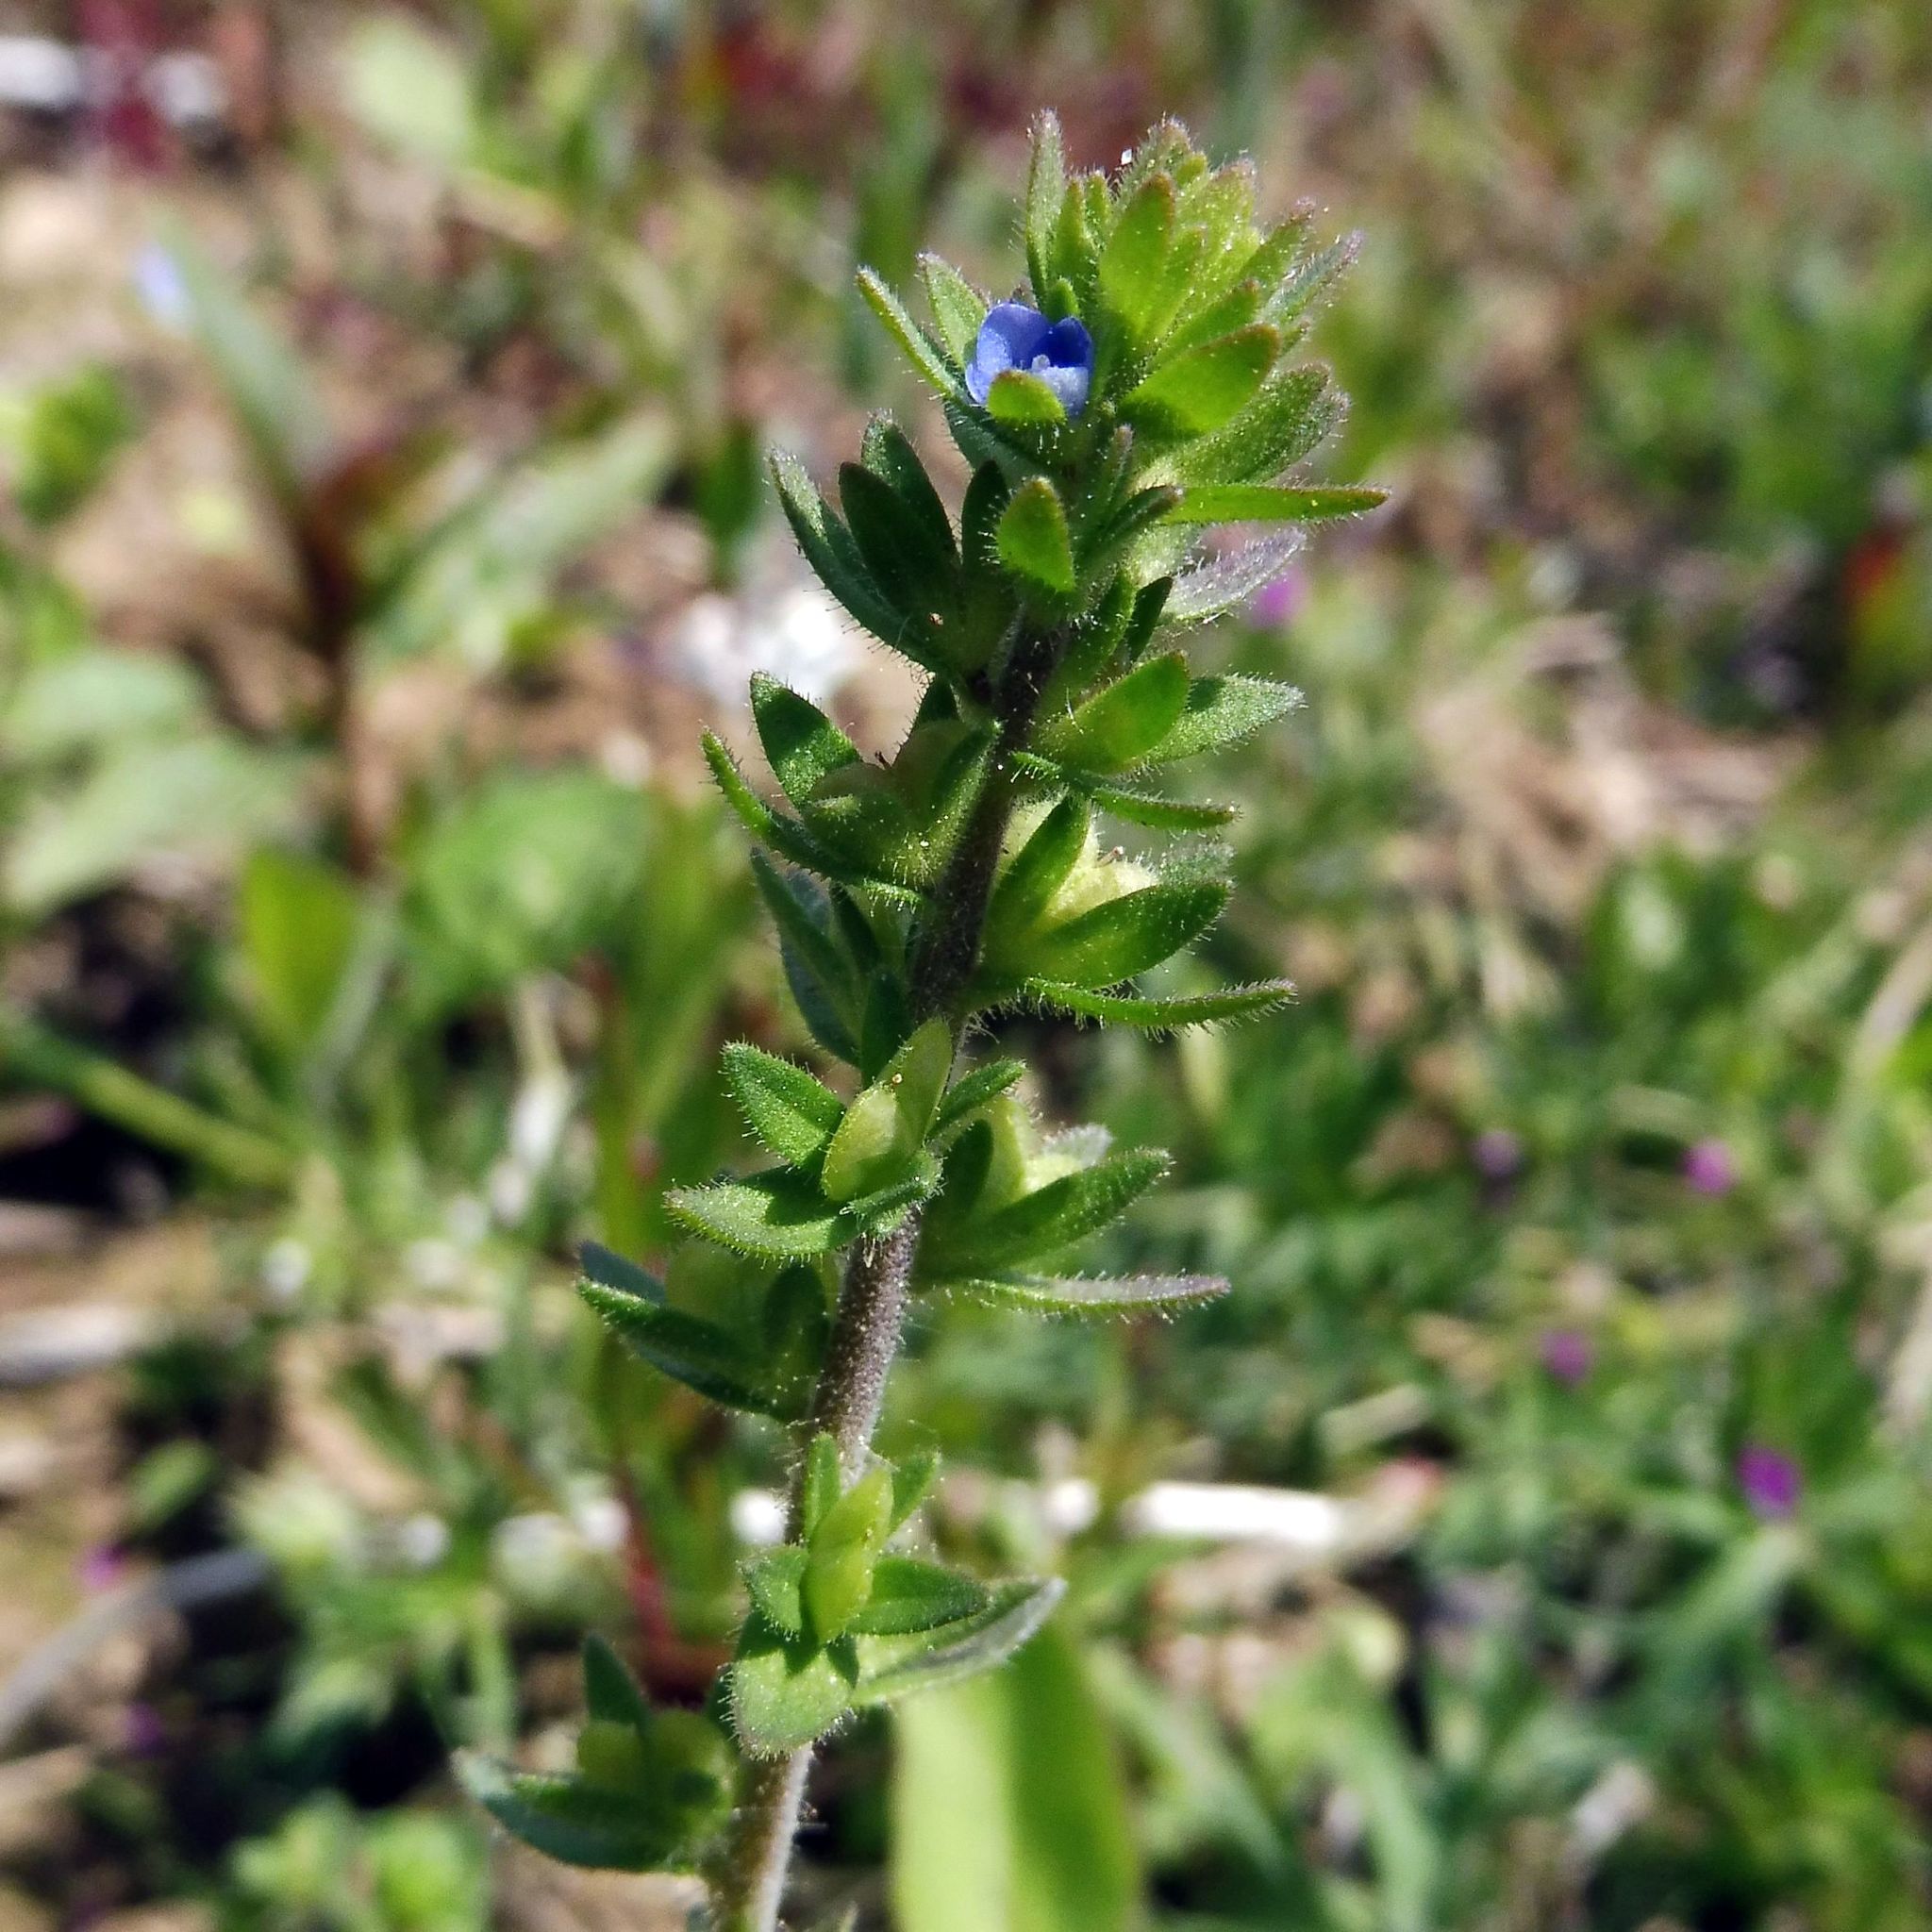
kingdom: Plantae
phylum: Tracheophyta
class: Magnoliopsida
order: Lamiales
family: Plantaginaceae
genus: Veronica
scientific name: Veronica arvensis
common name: Corn speedwell
